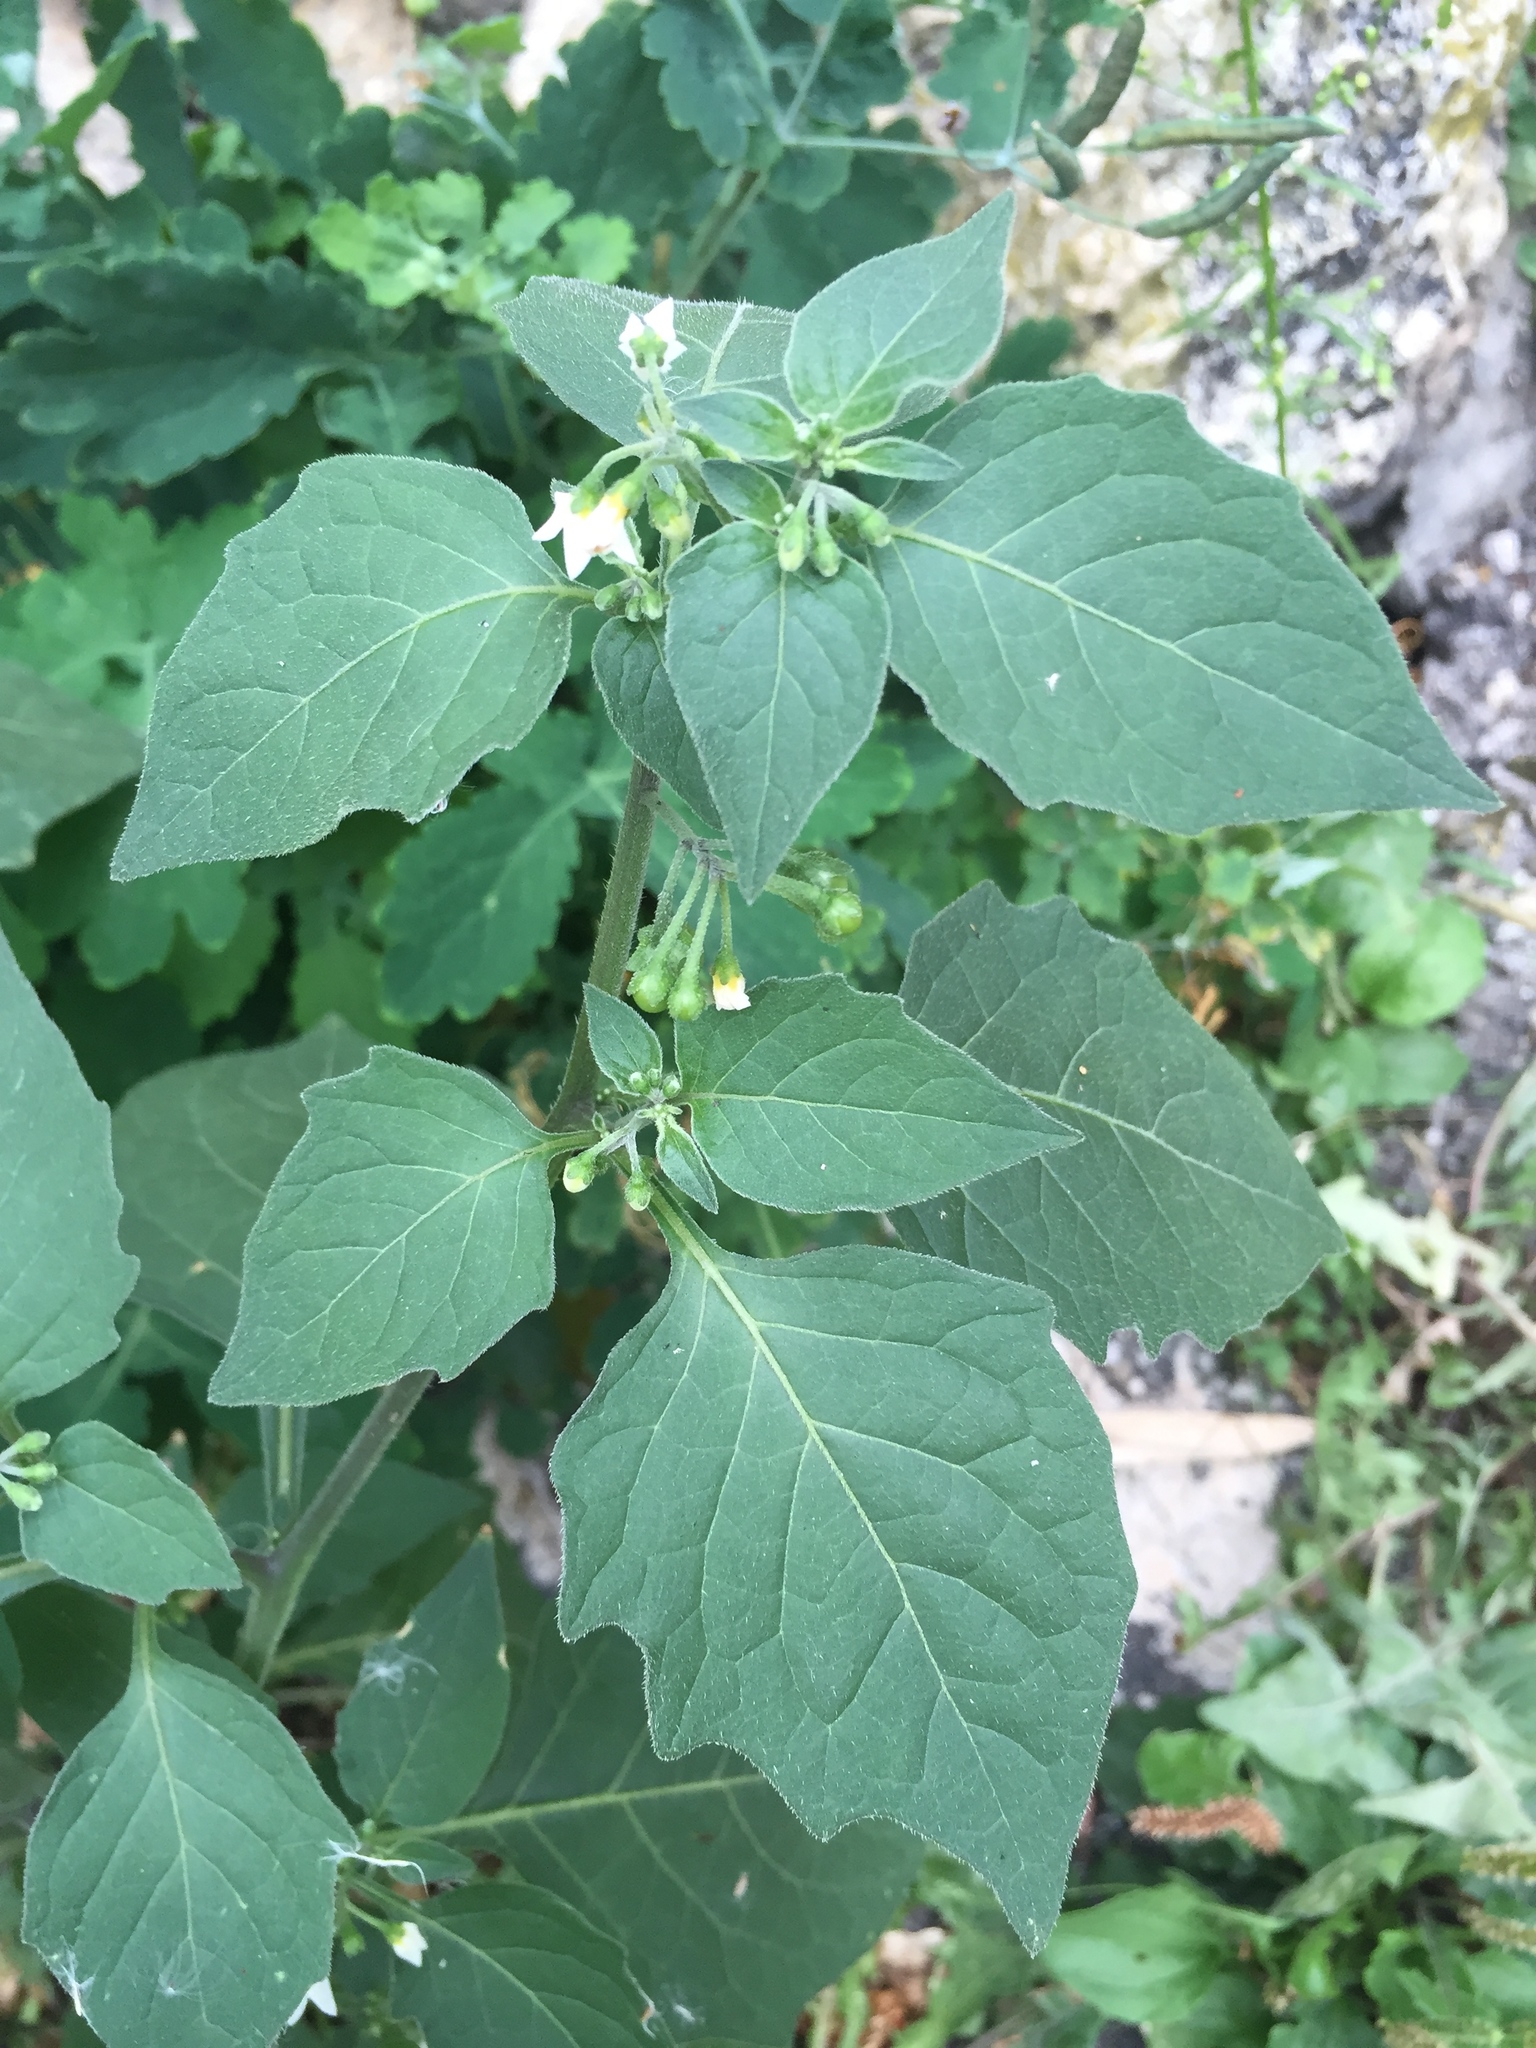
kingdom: Plantae
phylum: Tracheophyta
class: Magnoliopsida
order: Solanales
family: Solanaceae
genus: Solanum
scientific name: Solanum nigrum
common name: Black nightshade
